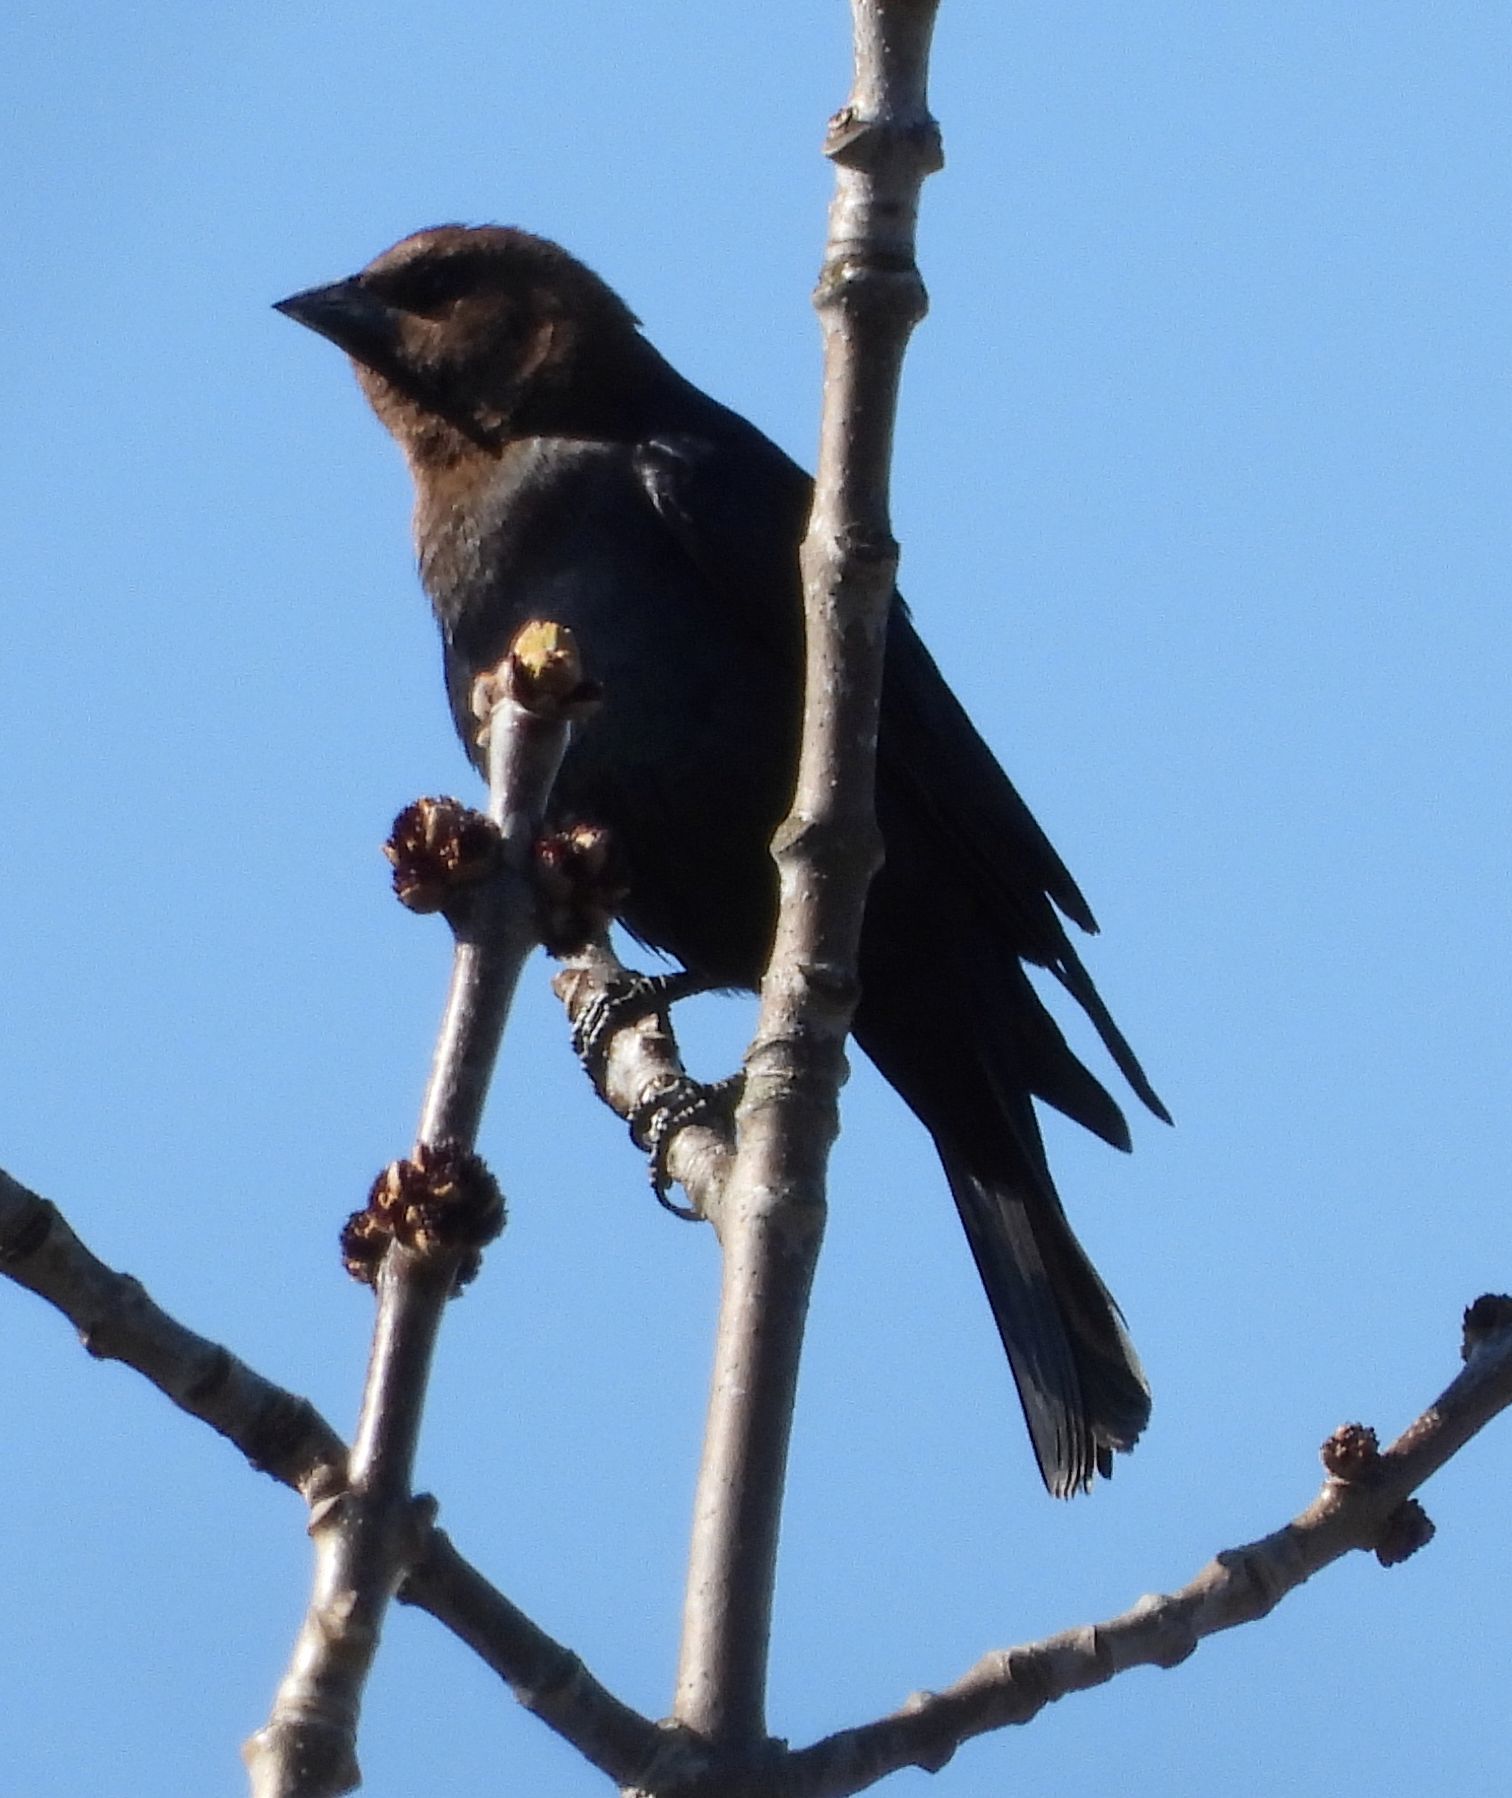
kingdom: Animalia
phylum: Chordata
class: Aves
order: Passeriformes
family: Icteridae
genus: Molothrus
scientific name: Molothrus ater
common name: Brown-headed cowbird
